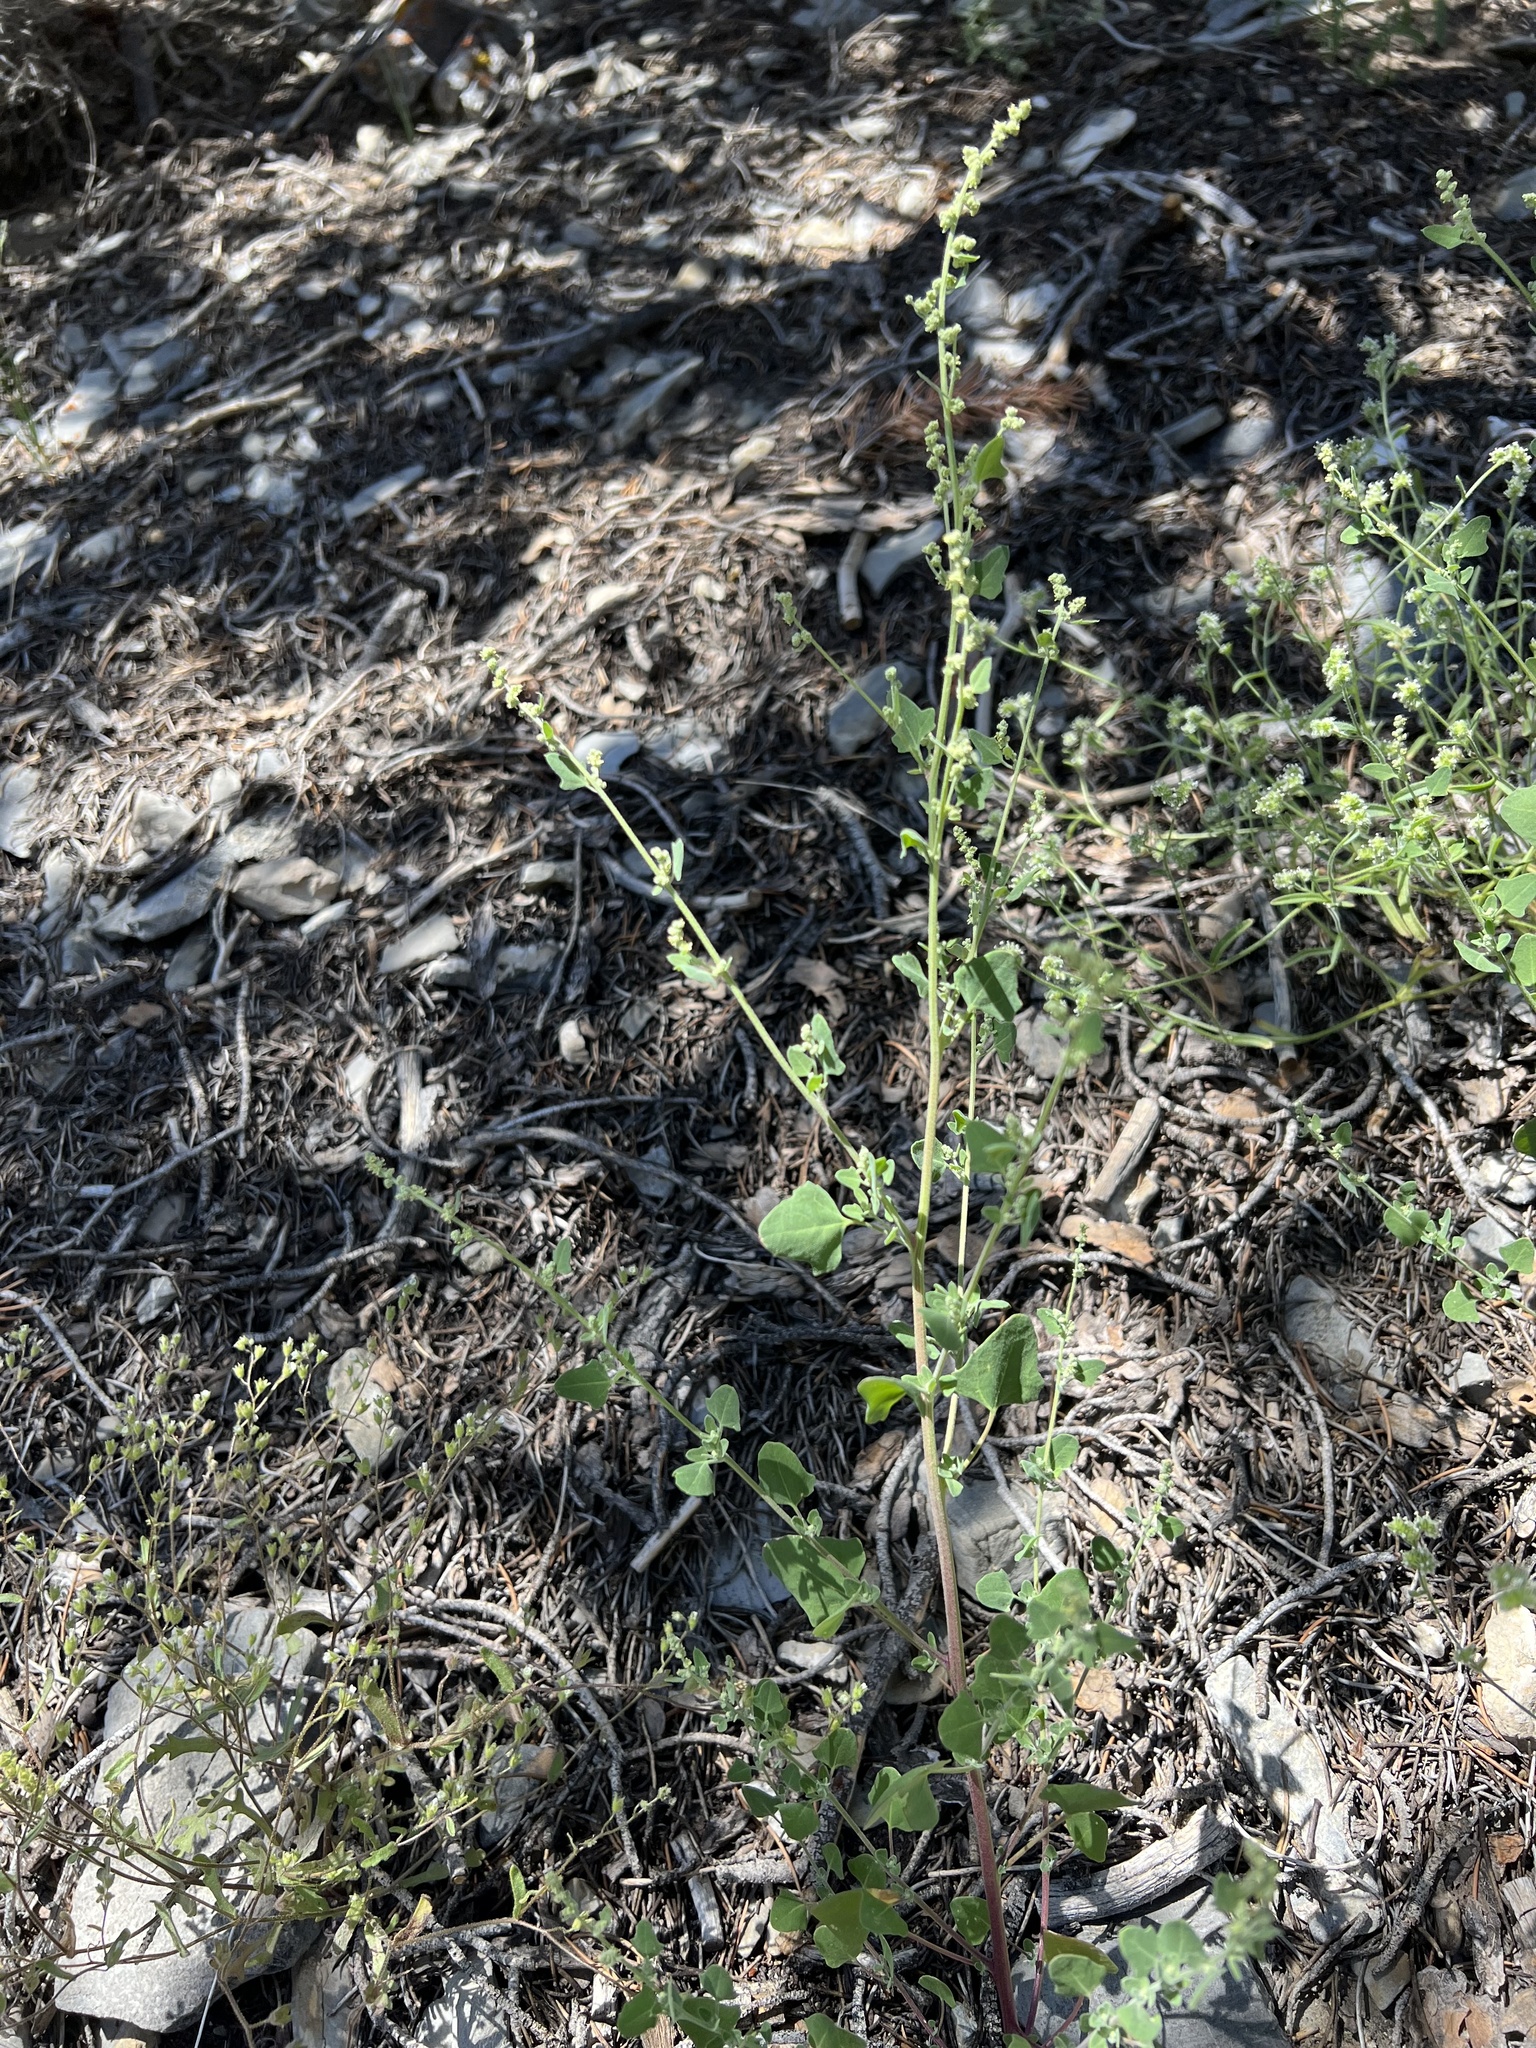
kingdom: Plantae
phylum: Tracheophyta
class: Magnoliopsida
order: Caryophyllales
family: Amaranthaceae
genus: Chenopodium
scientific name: Chenopodium fremontii
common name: Fremont's goosefoot
